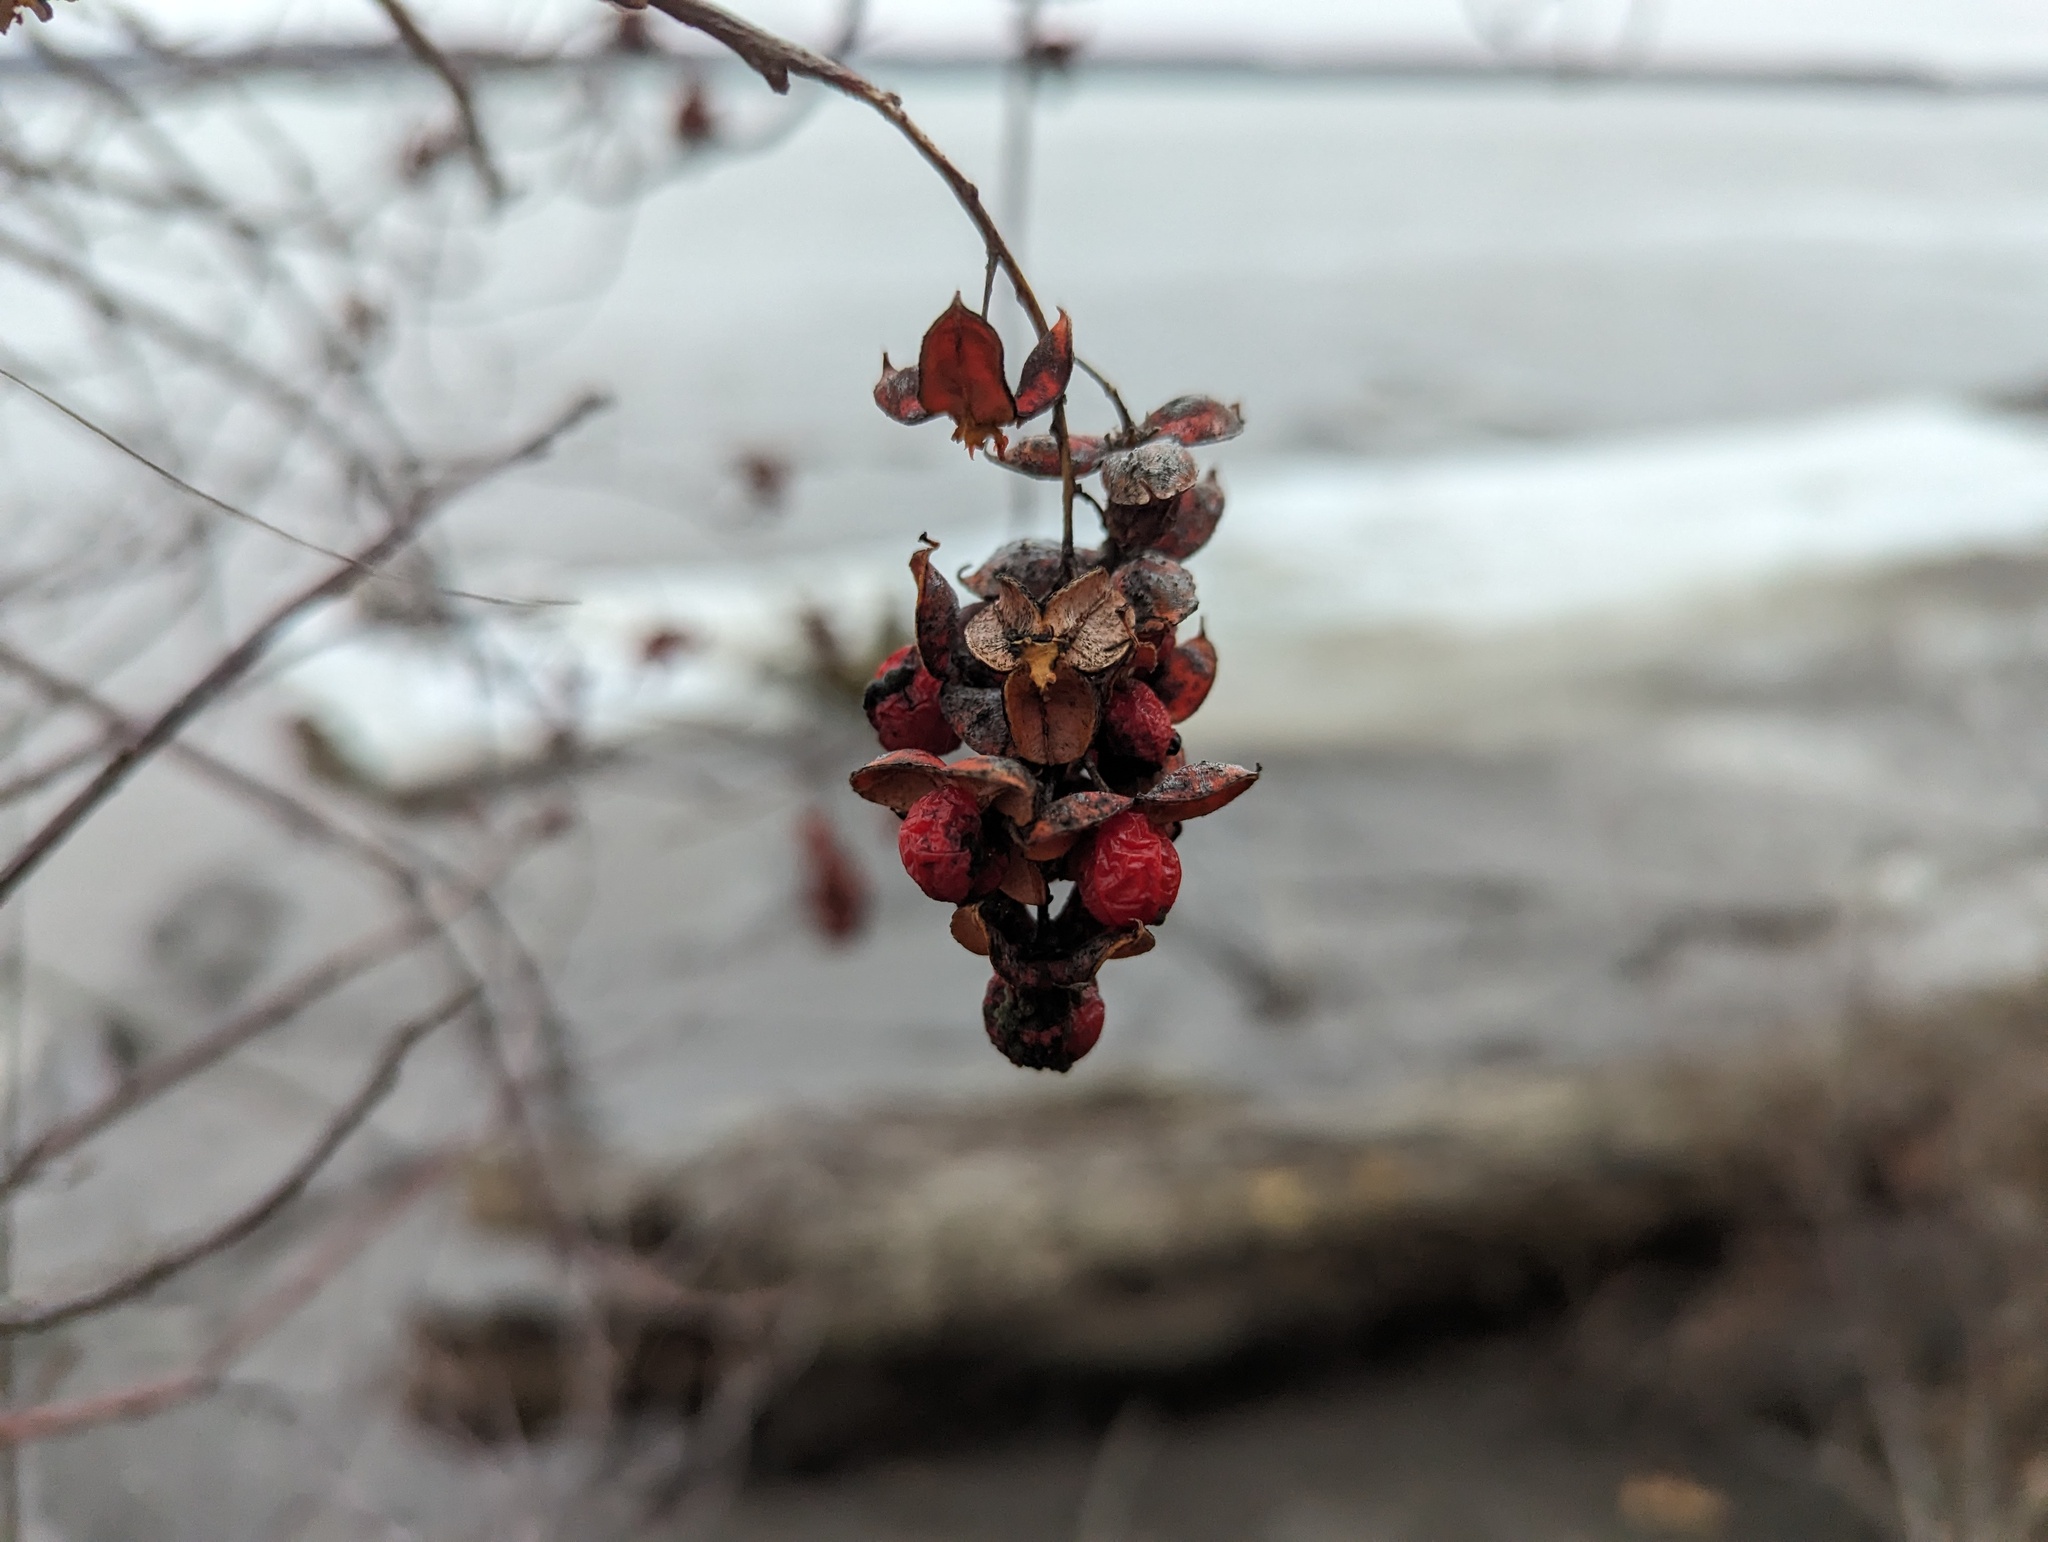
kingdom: Plantae
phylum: Tracheophyta
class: Magnoliopsida
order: Celastrales
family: Celastraceae
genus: Celastrus
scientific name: Celastrus scandens
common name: American bittersweet
